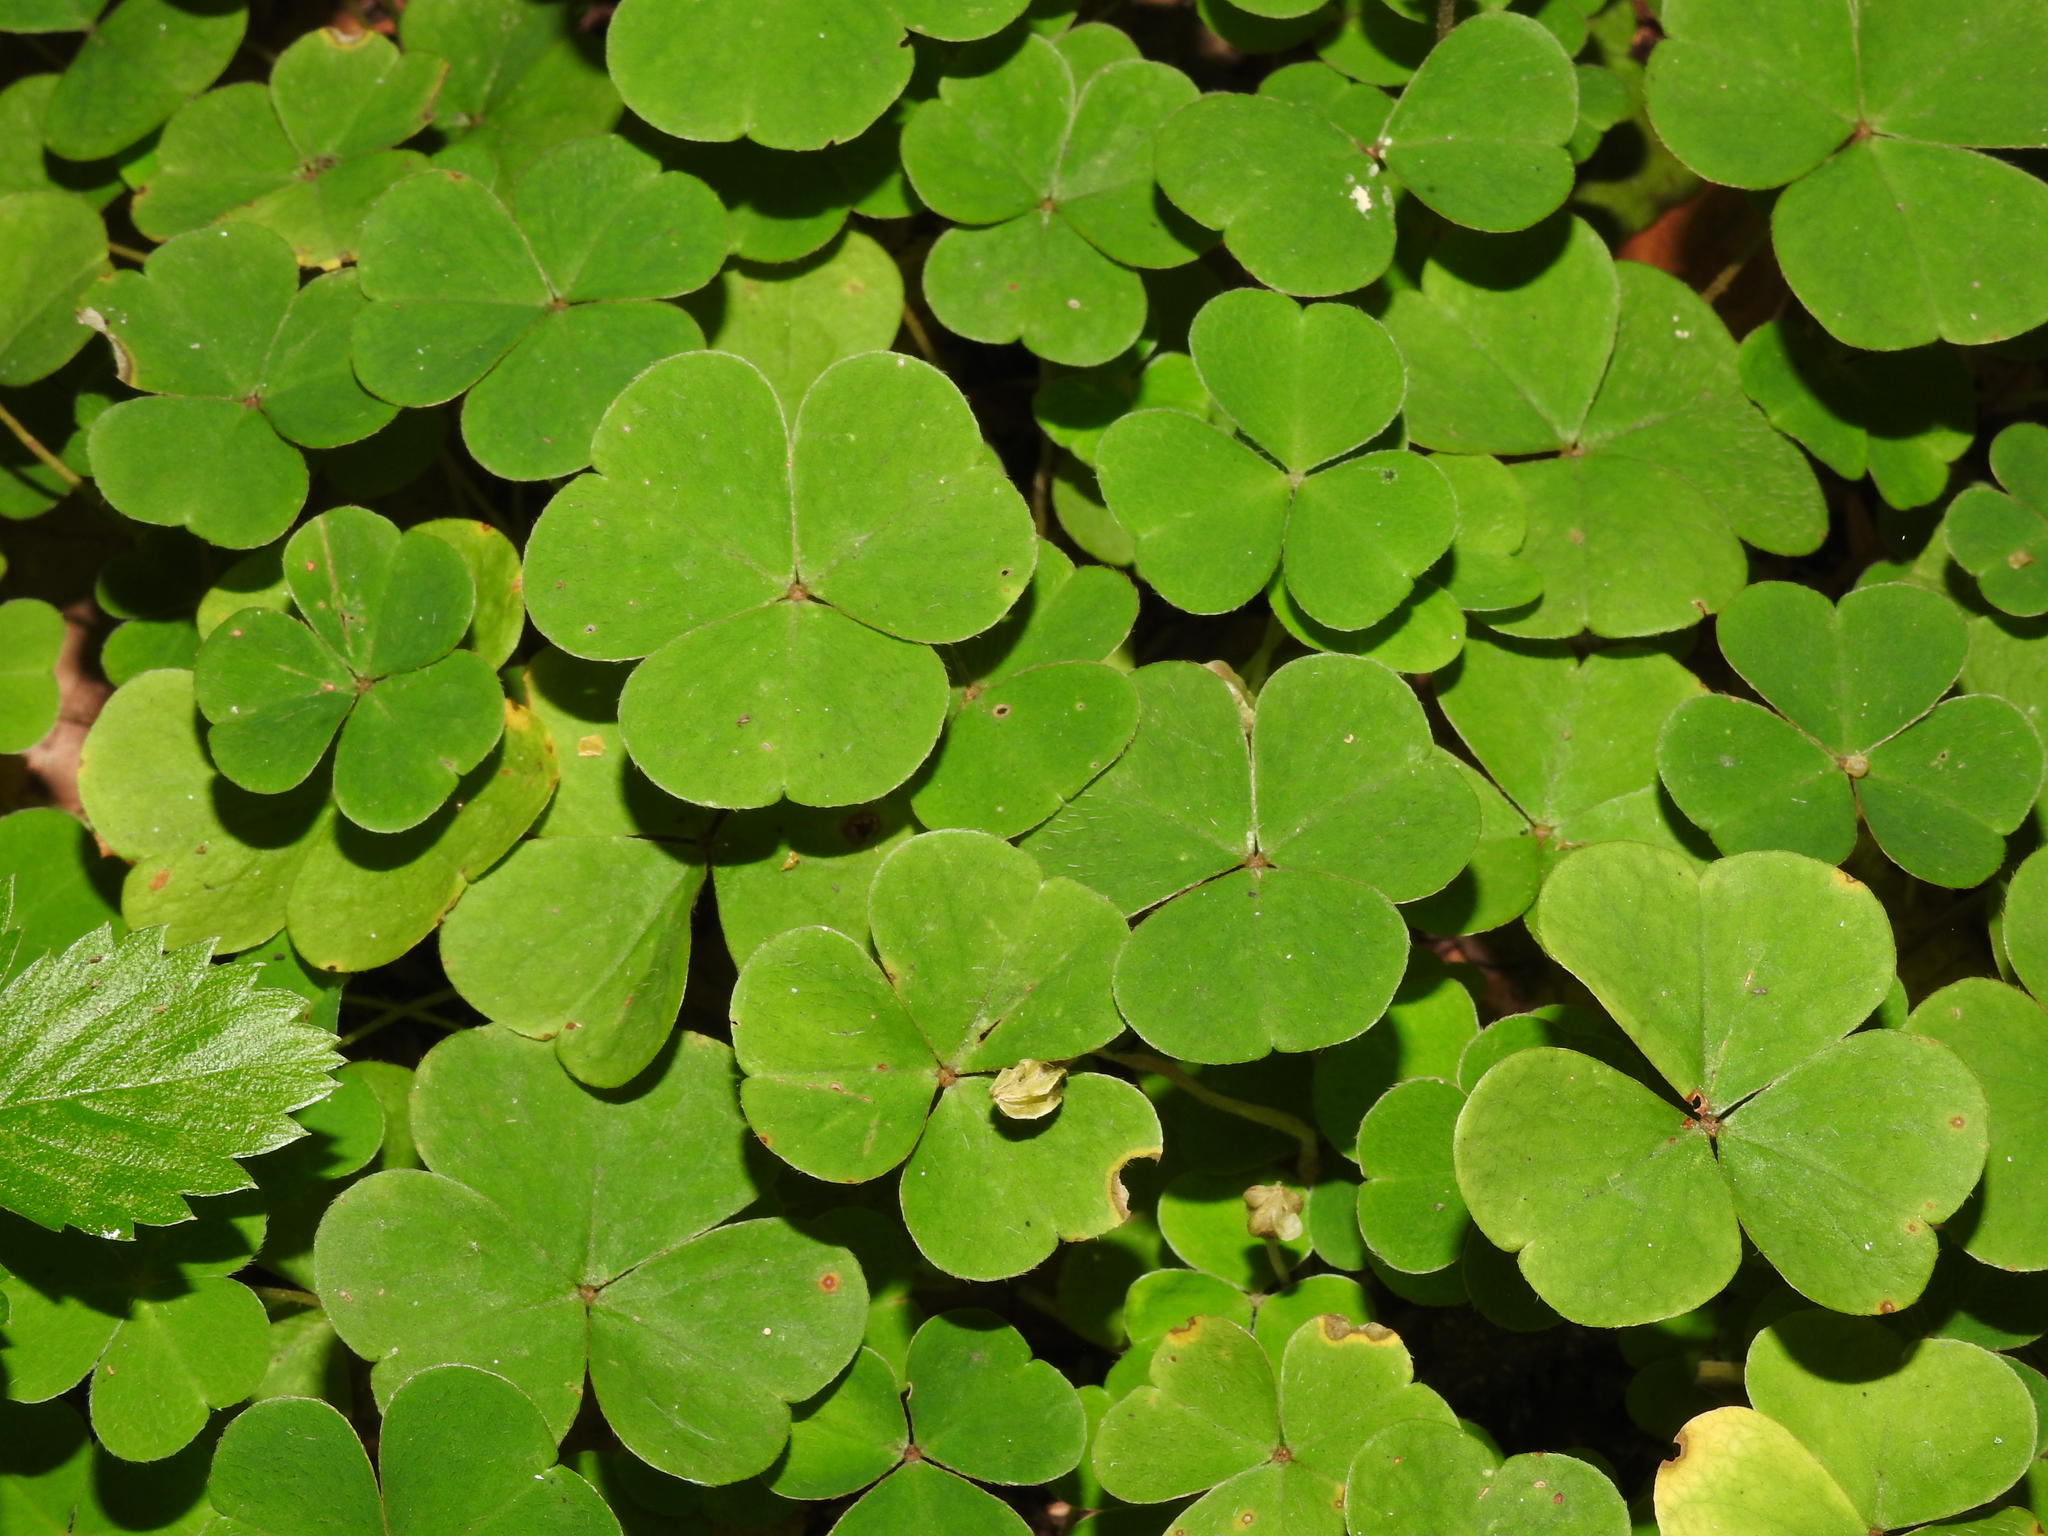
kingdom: Plantae
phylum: Tracheophyta
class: Magnoliopsida
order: Oxalidales
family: Oxalidaceae
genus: Oxalis
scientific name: Oxalis acetosella
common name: Wood-sorrel
